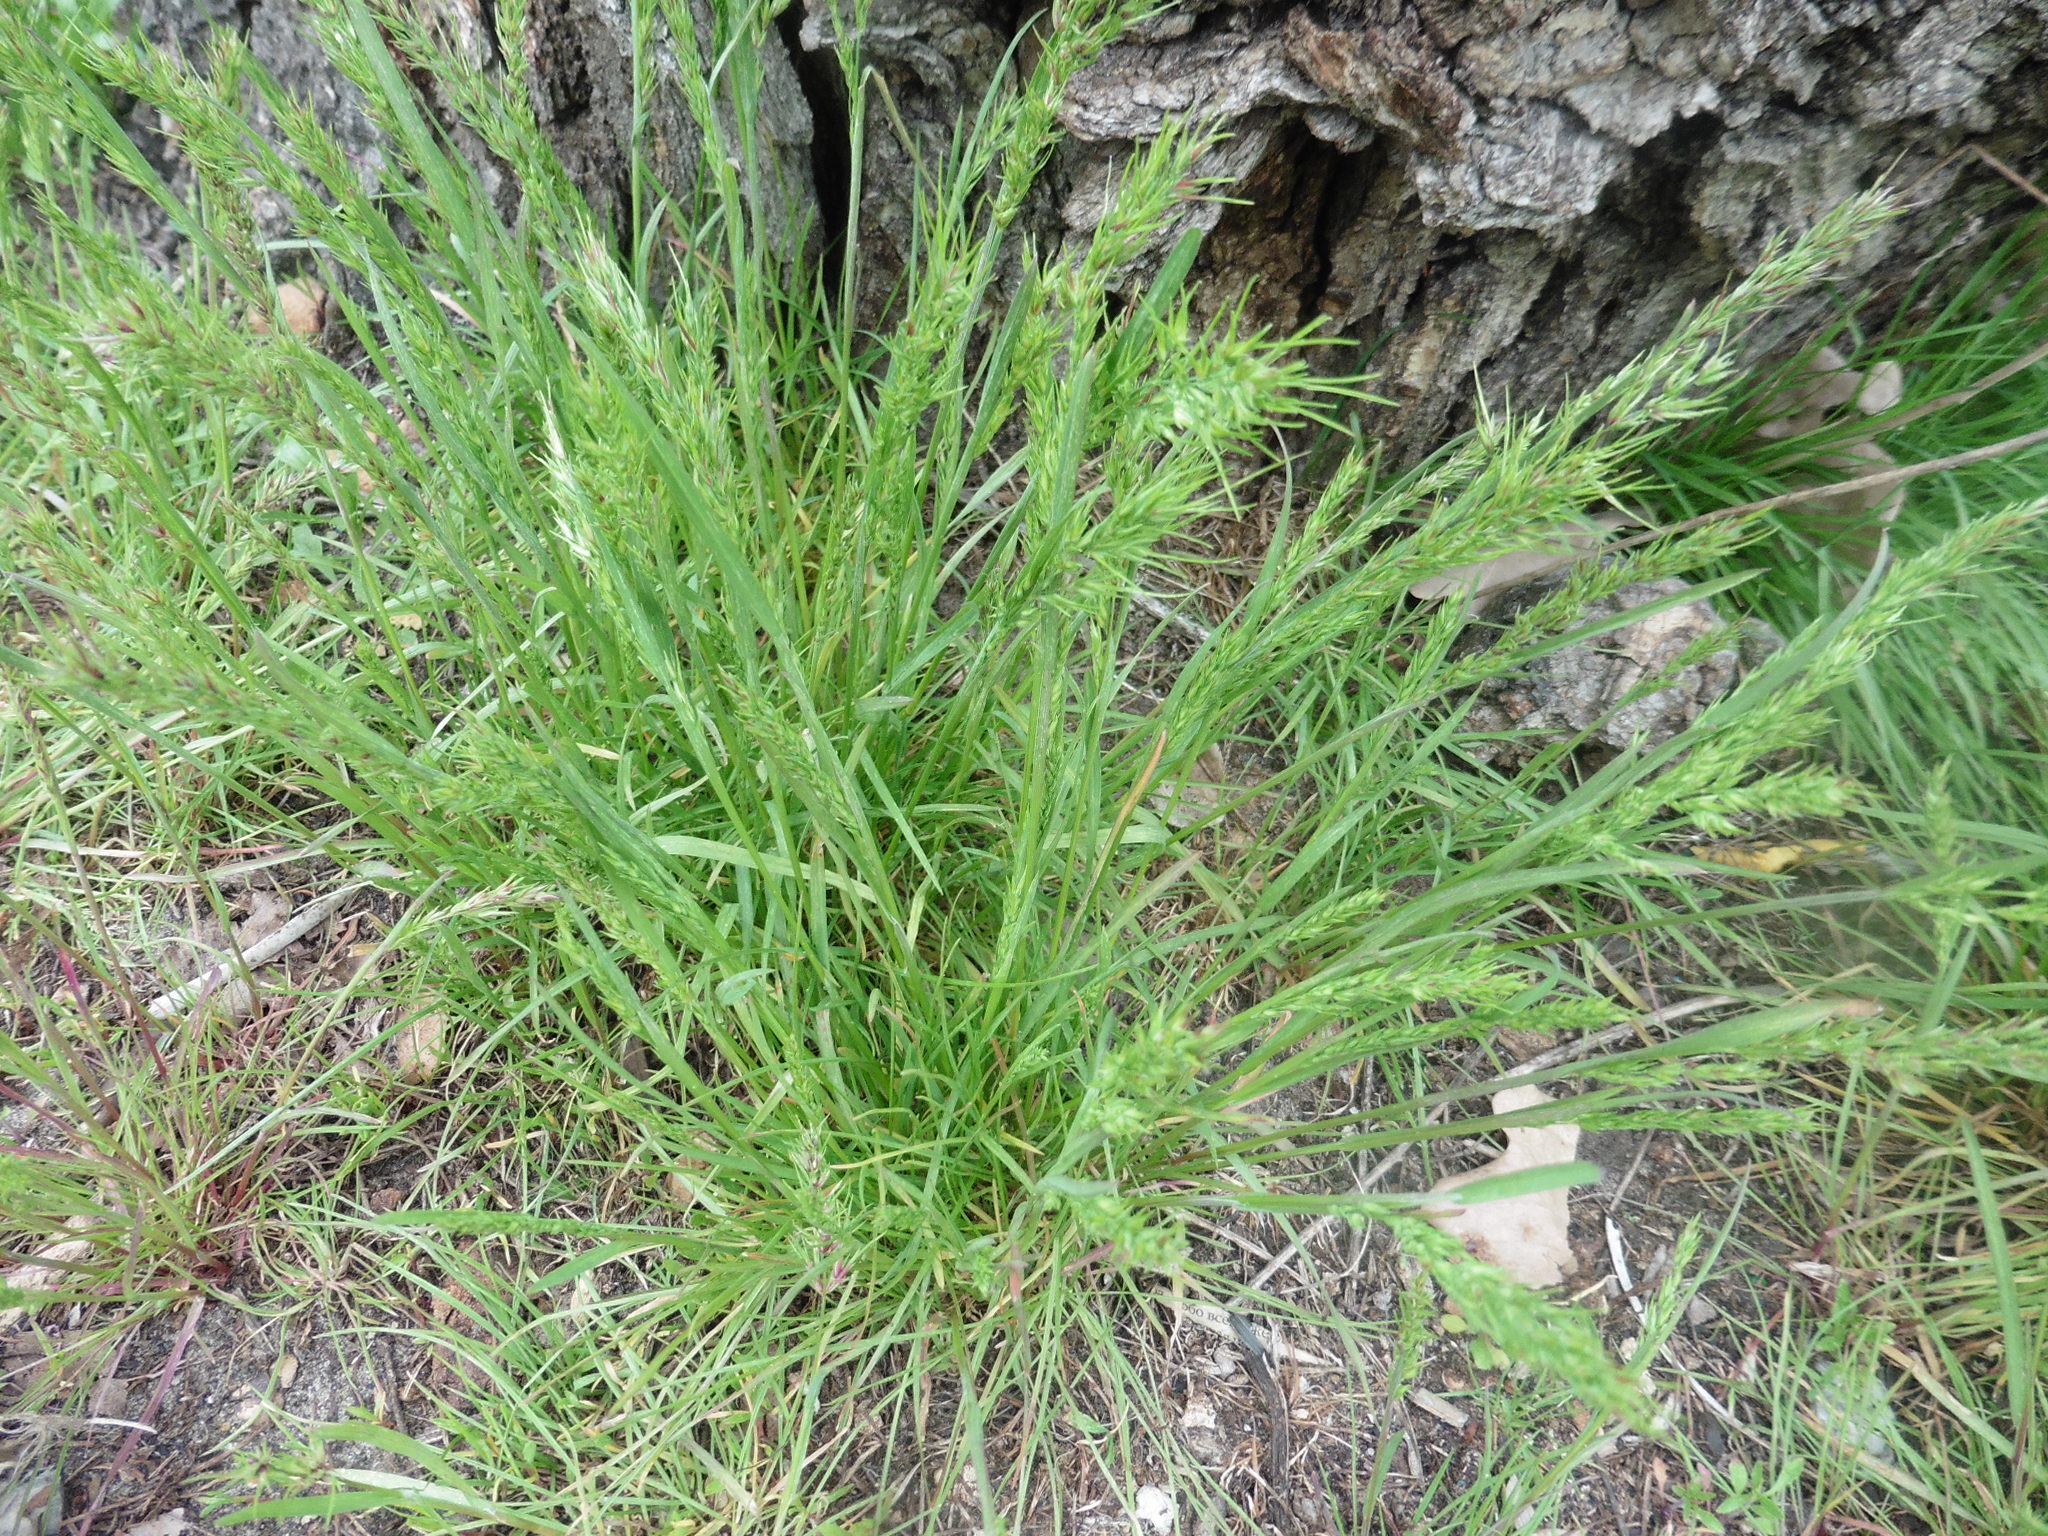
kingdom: Plantae
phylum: Tracheophyta
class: Liliopsida
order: Poales
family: Poaceae
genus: Poa
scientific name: Poa bulbosa
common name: Bulbous bluegrass
